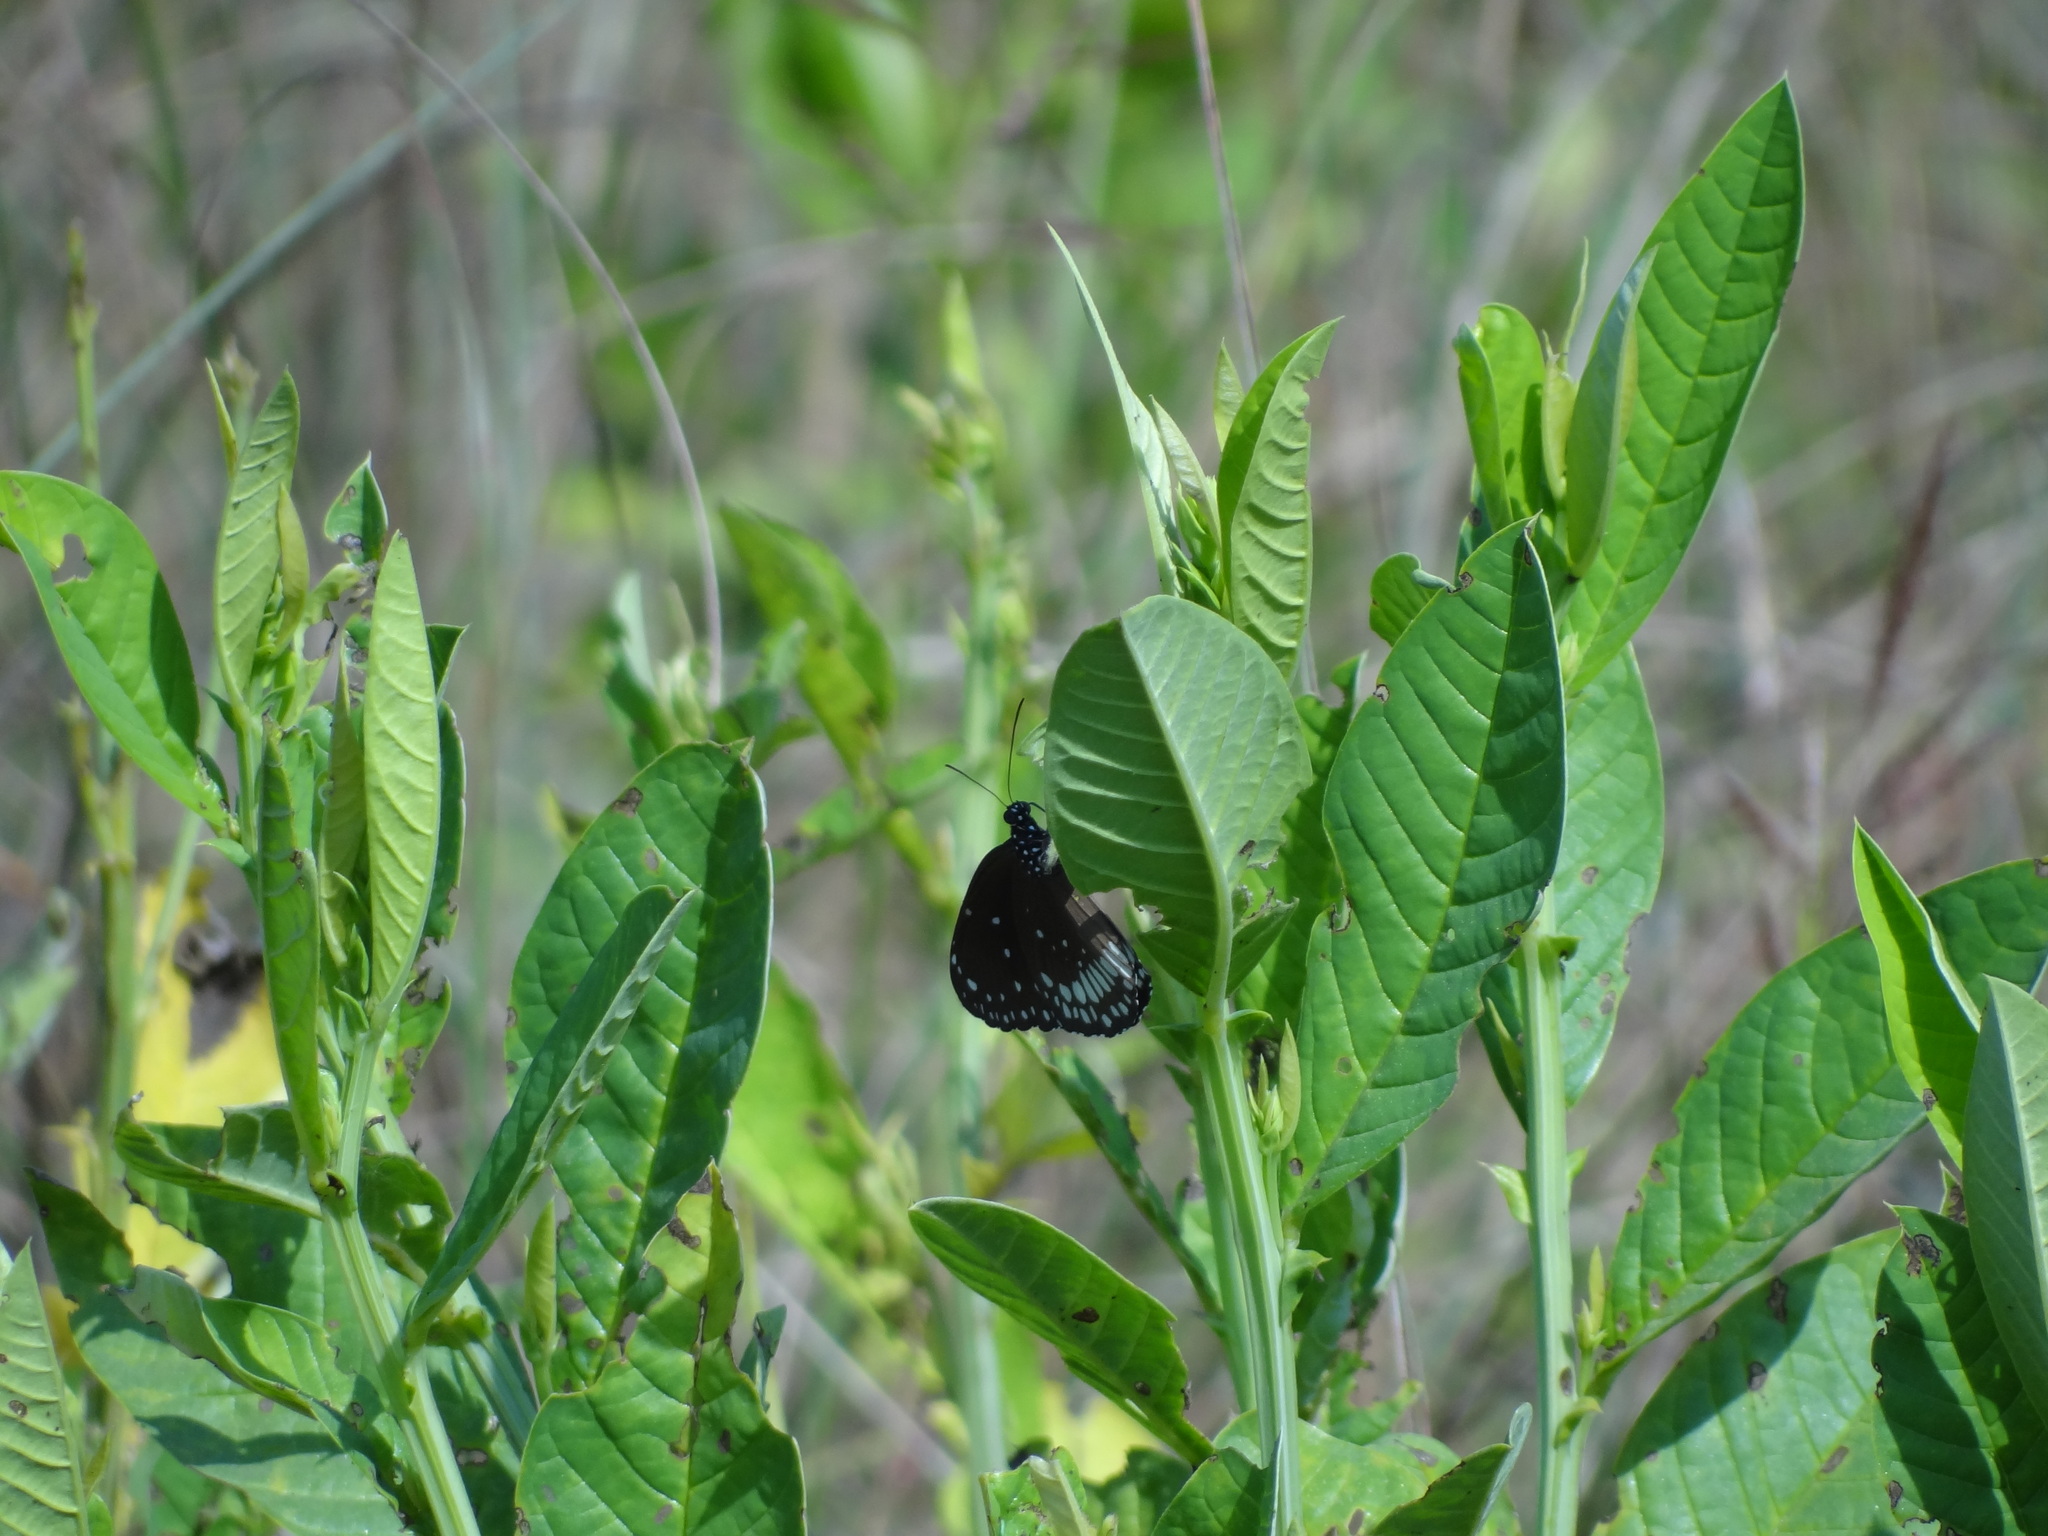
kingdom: Animalia
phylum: Arthropoda
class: Insecta
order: Lepidoptera
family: Nymphalidae
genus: Euploea
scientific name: Euploea core
